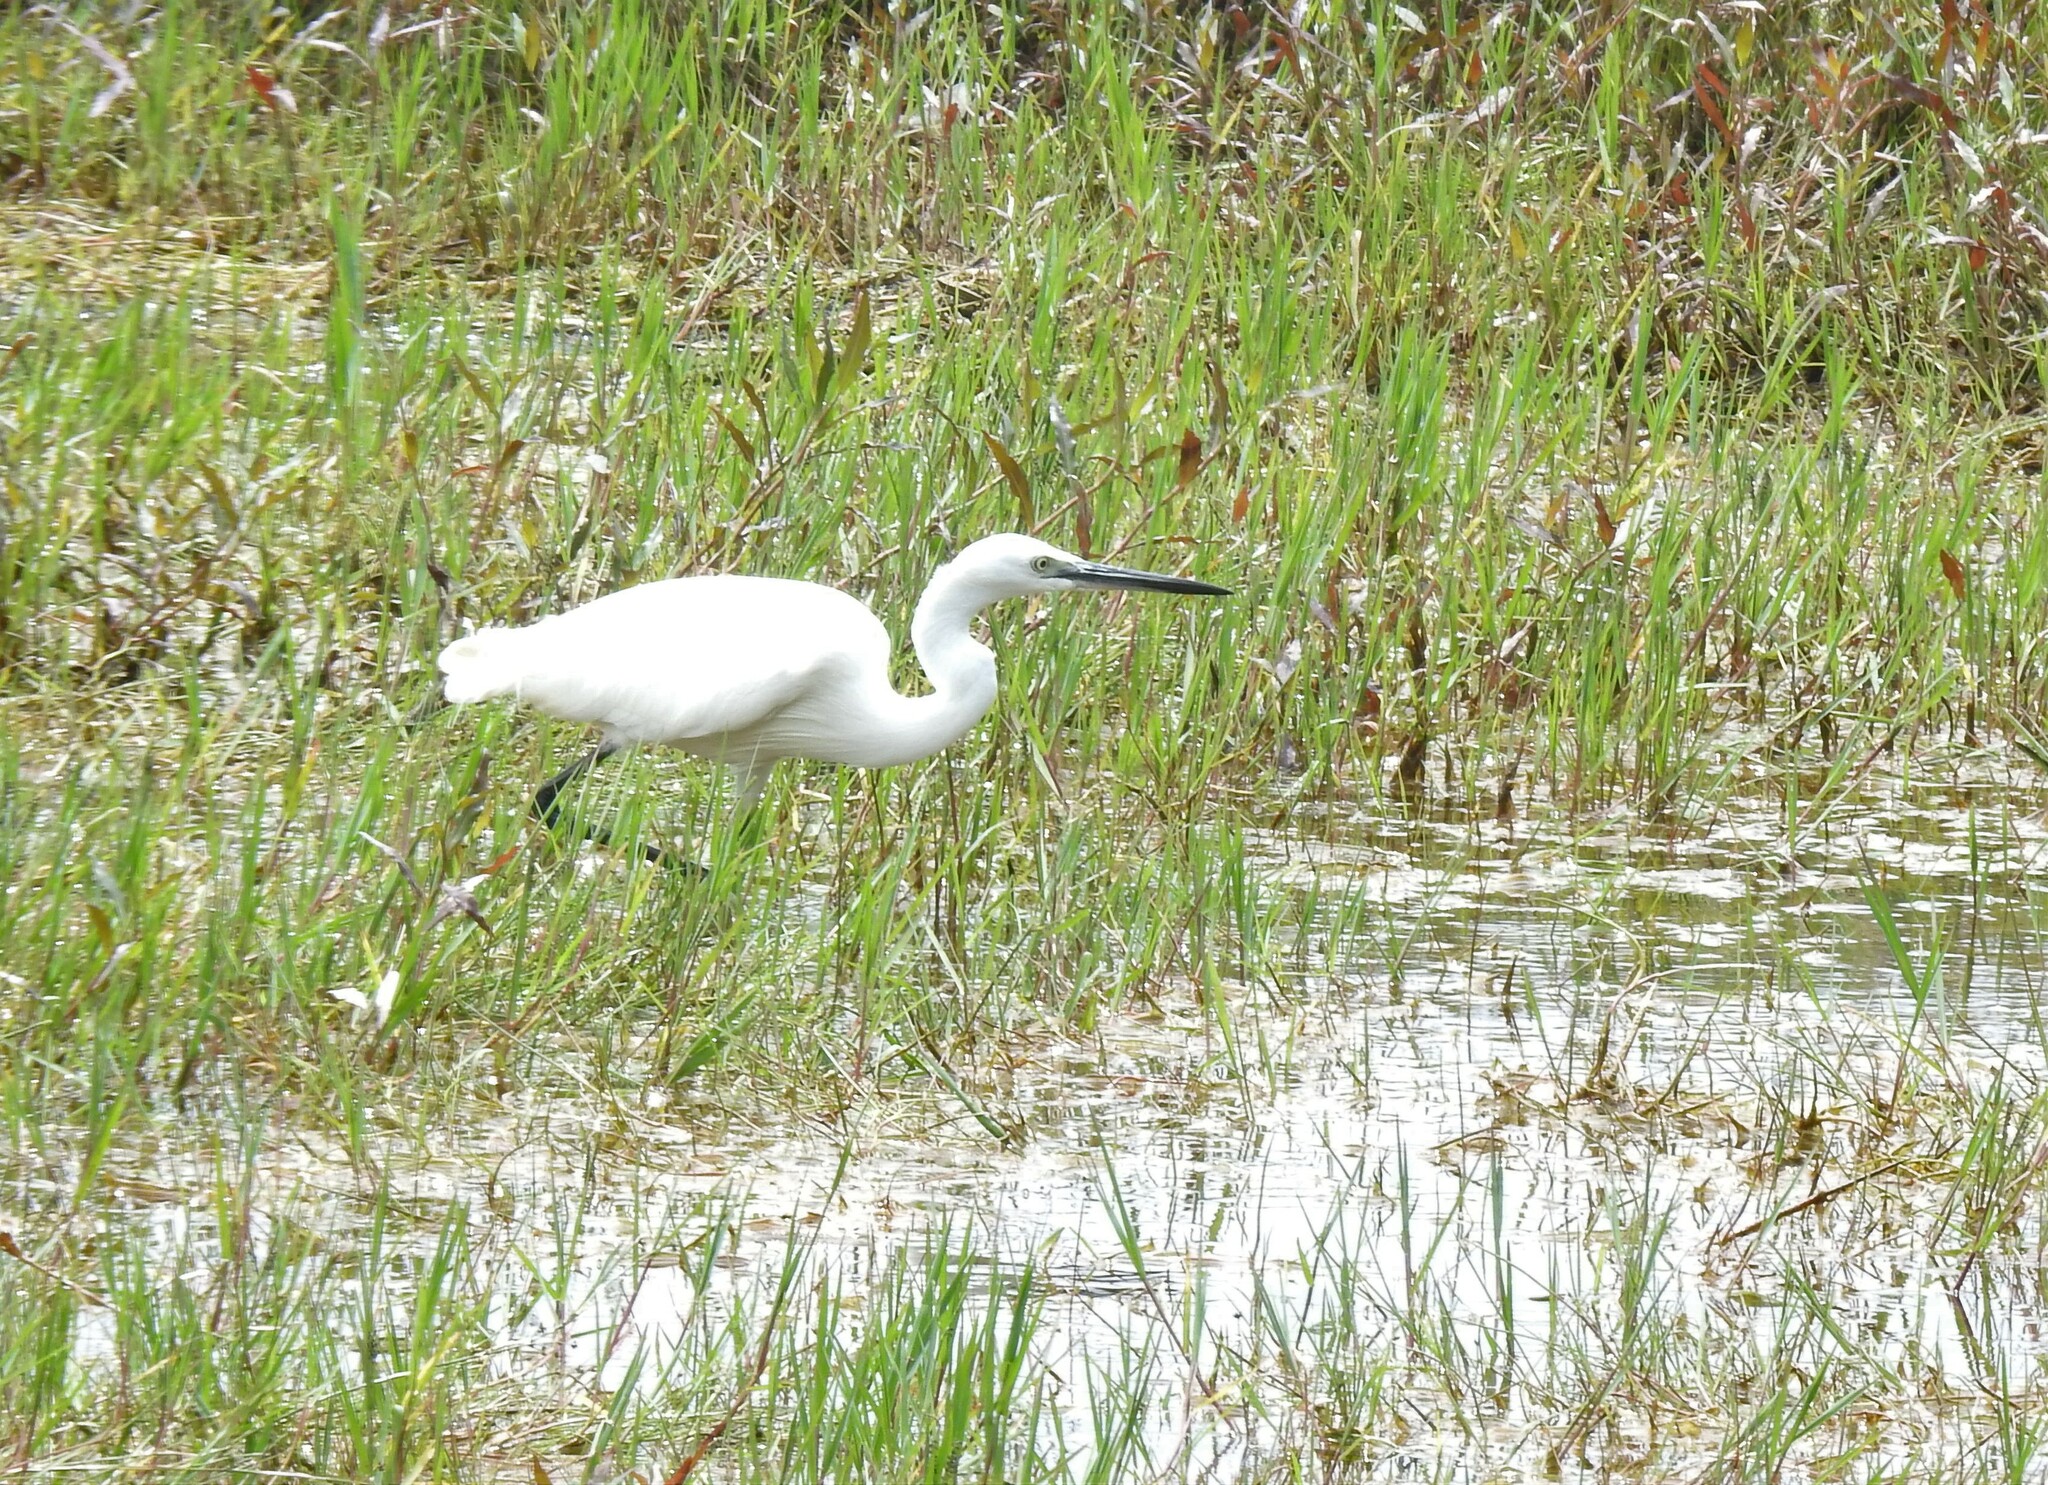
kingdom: Animalia
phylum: Chordata
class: Aves
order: Pelecaniformes
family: Ardeidae
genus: Egretta
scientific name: Egretta garzetta
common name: Little egret
